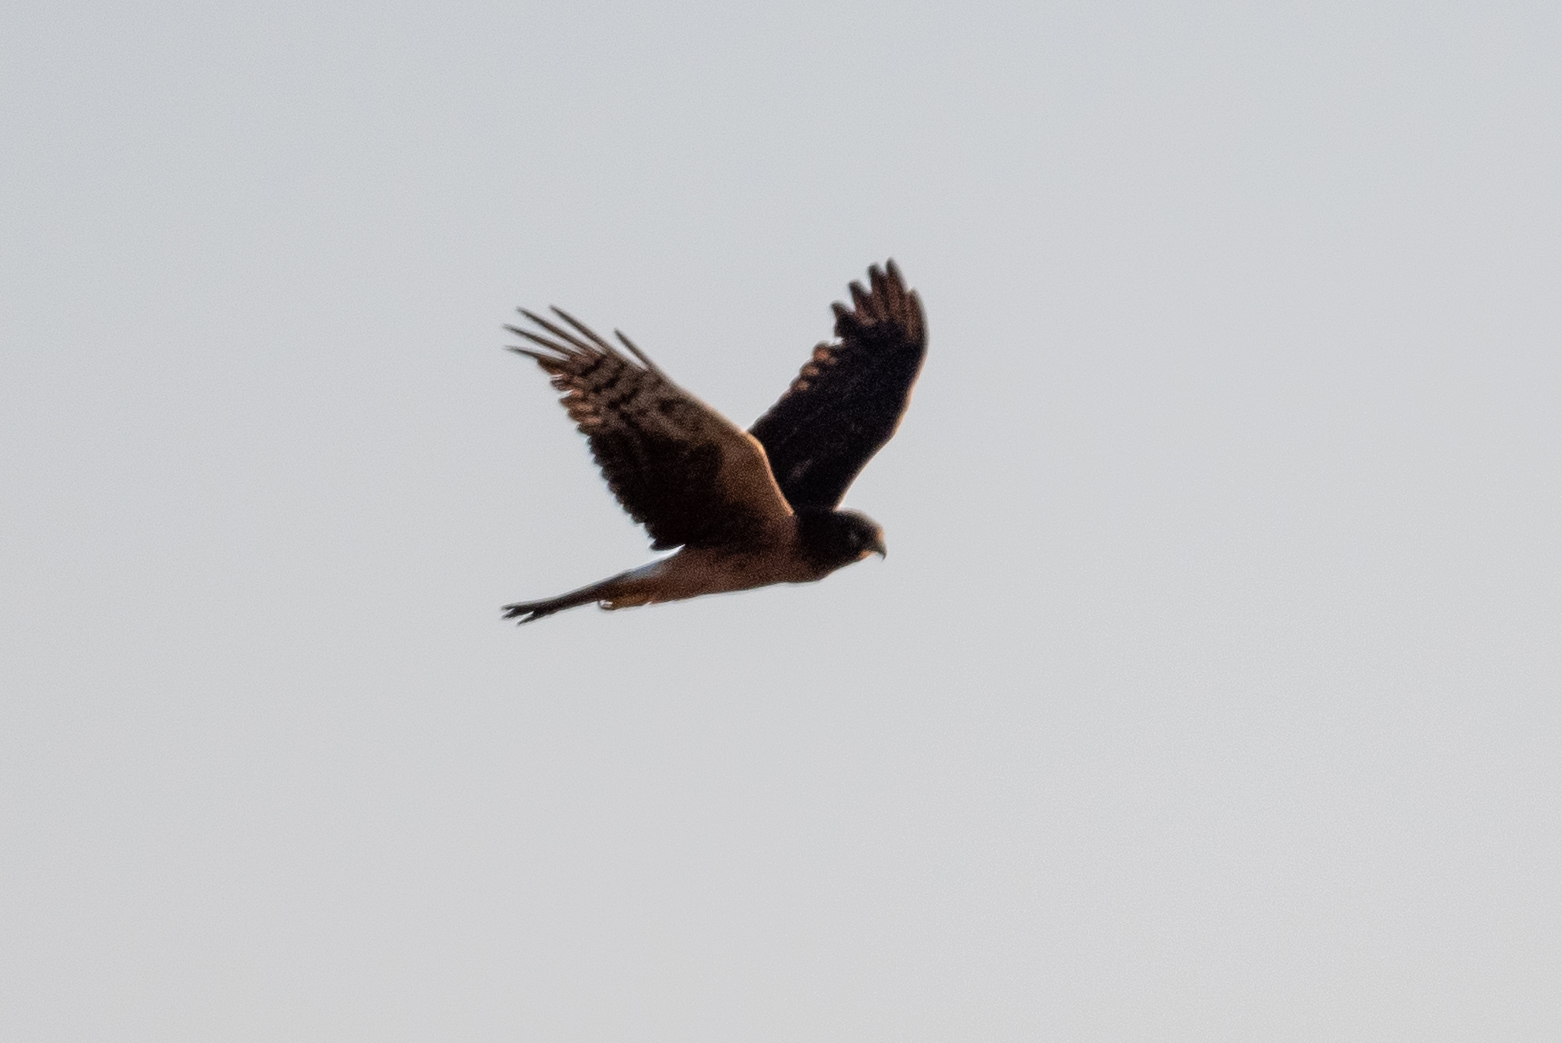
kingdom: Animalia
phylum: Chordata
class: Aves
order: Accipitriformes
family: Accipitridae
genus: Circus
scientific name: Circus cyaneus
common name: Hen harrier
